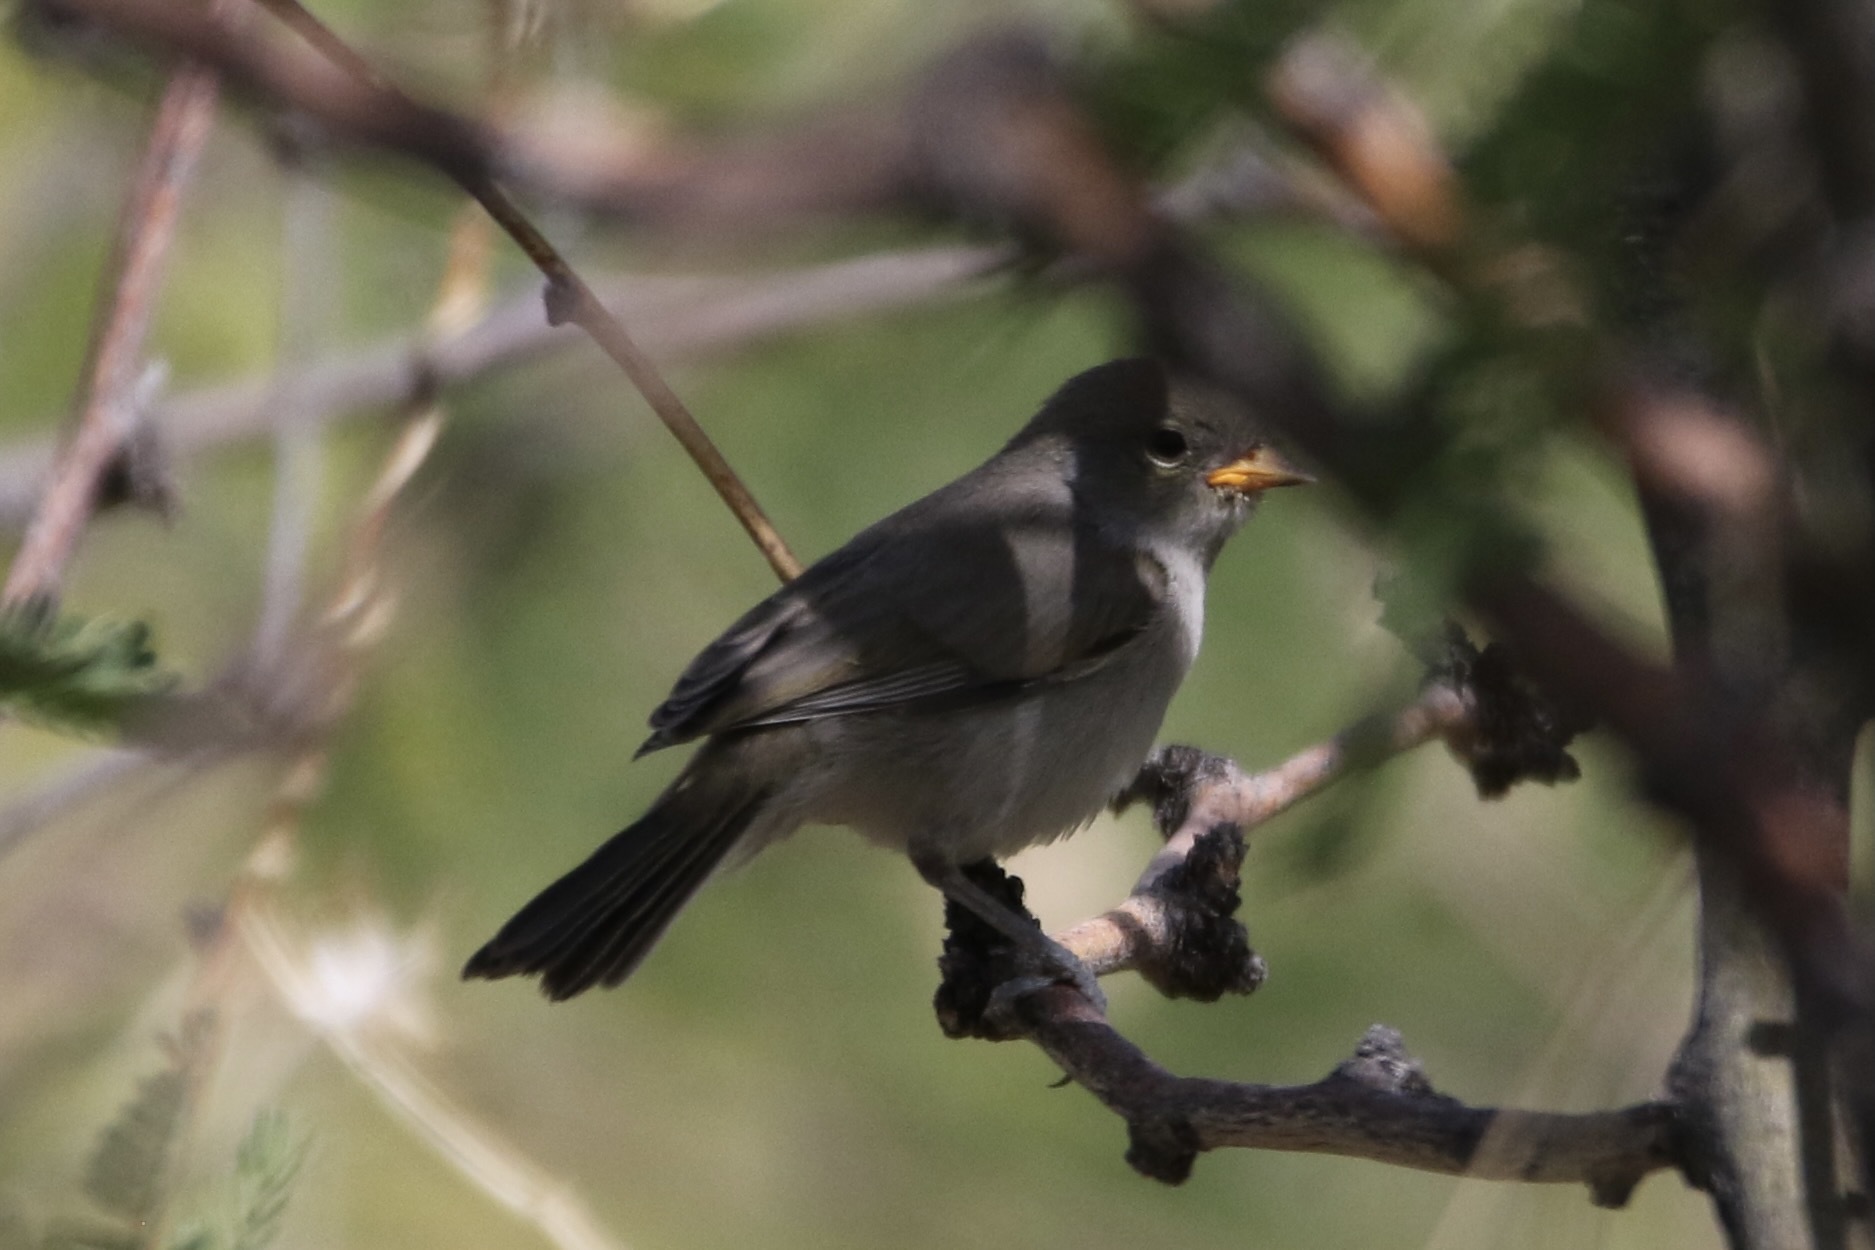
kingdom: Animalia
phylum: Chordata
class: Aves
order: Passeriformes
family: Remizidae
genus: Auriparus
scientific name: Auriparus flaviceps
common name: Verdin
